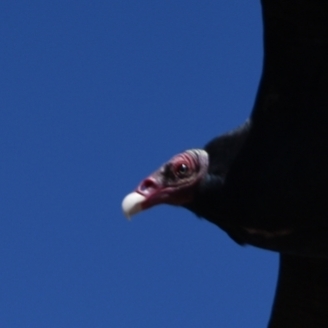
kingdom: Animalia
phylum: Chordata
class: Aves
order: Accipitriformes
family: Cathartidae
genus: Cathartes
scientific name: Cathartes aura
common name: Turkey vulture
